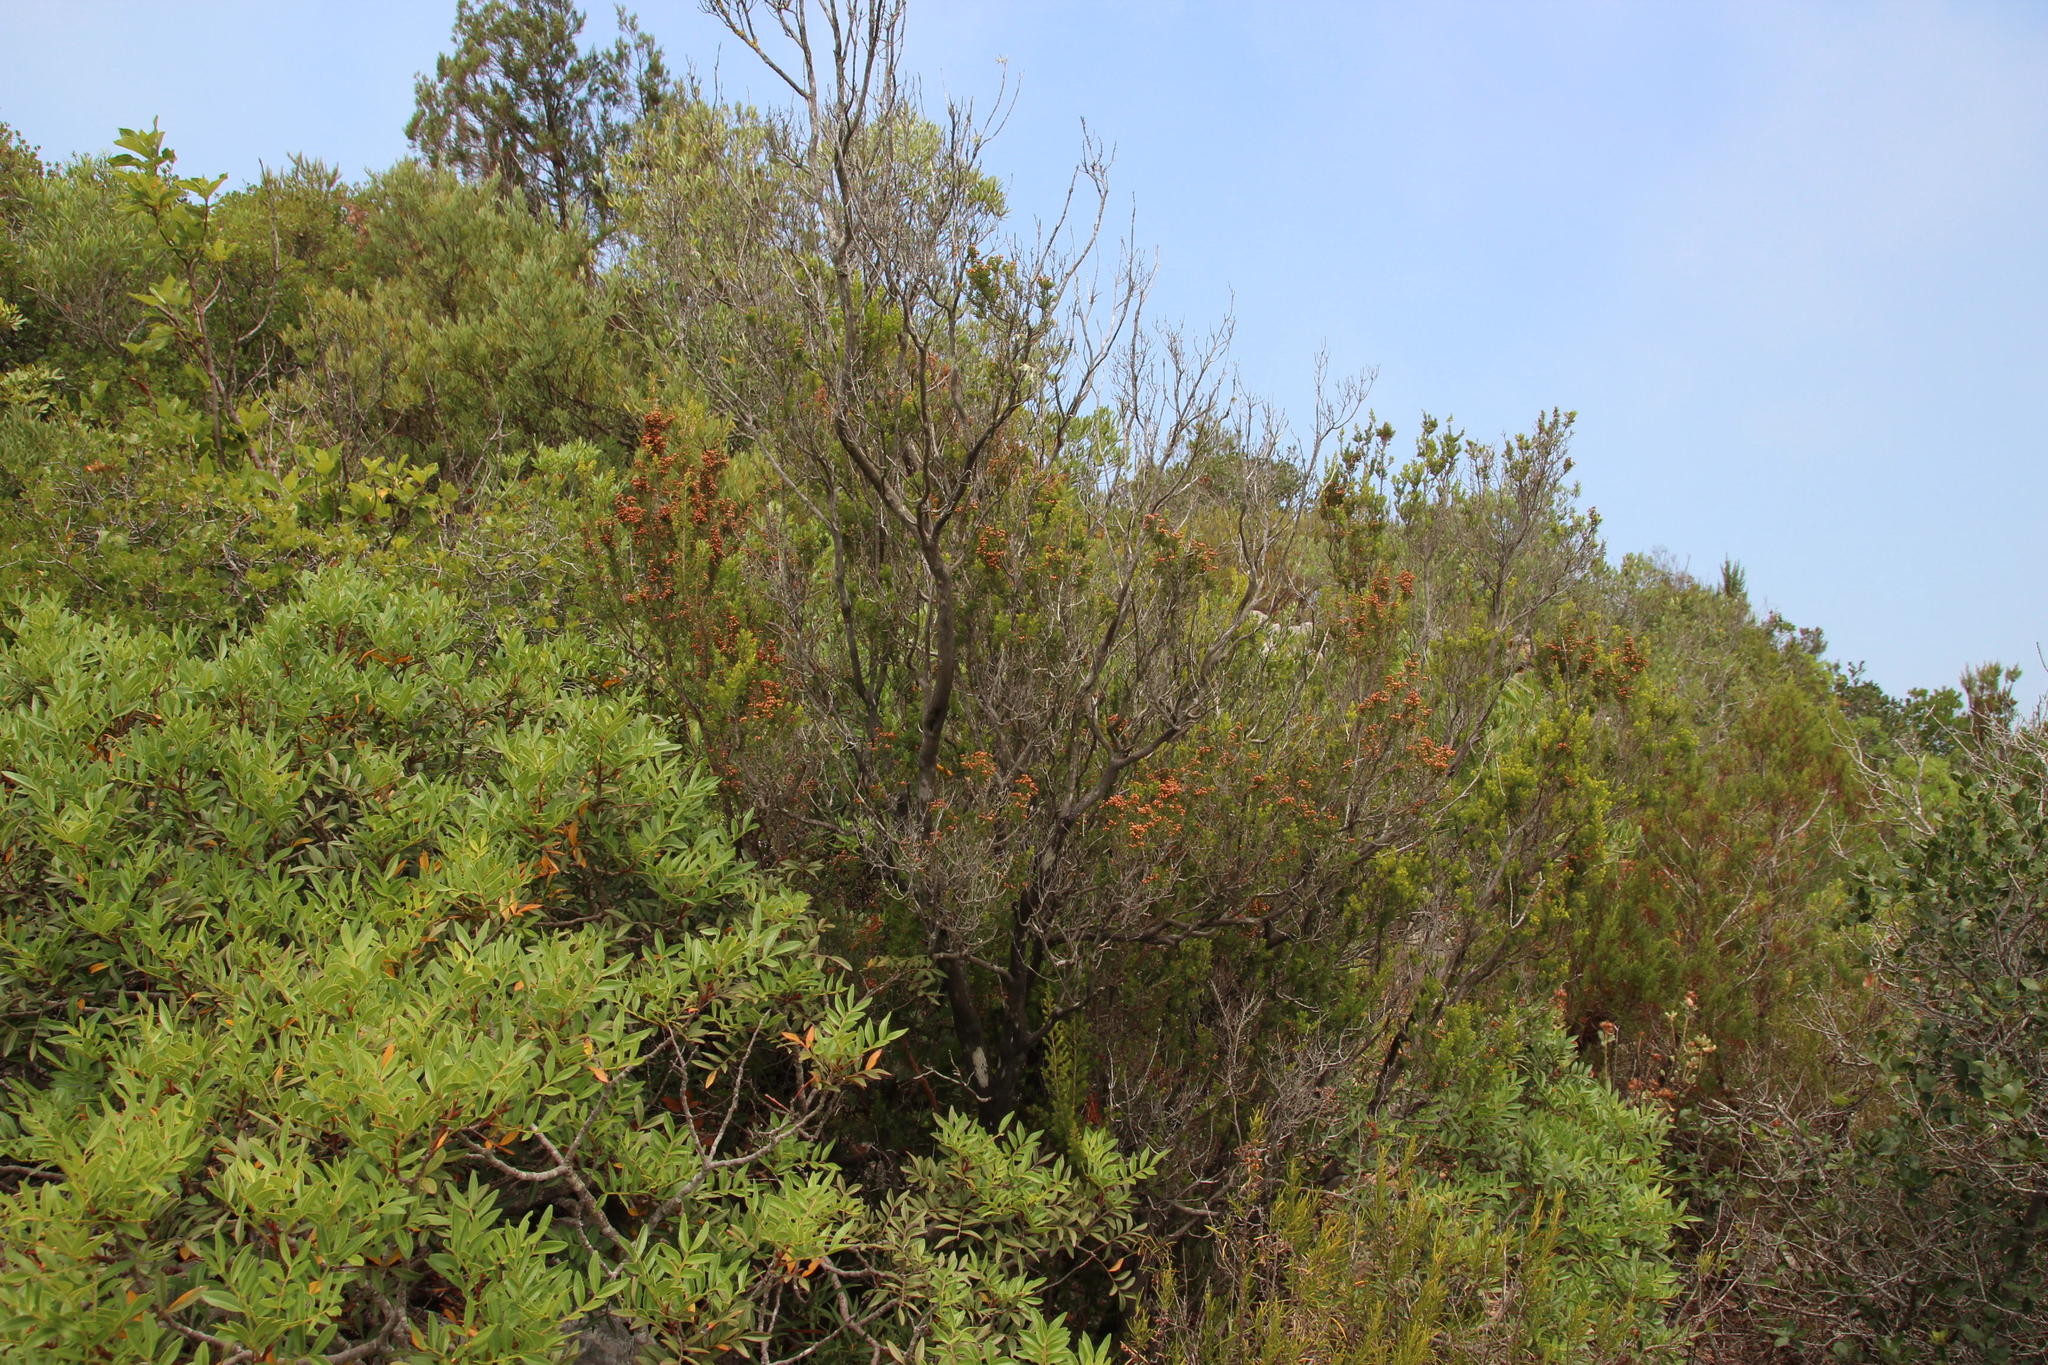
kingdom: Plantae
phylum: Tracheophyta
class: Magnoliopsida
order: Ericales
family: Ericaceae
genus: Erica
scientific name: Erica arborea
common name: Tree heath
